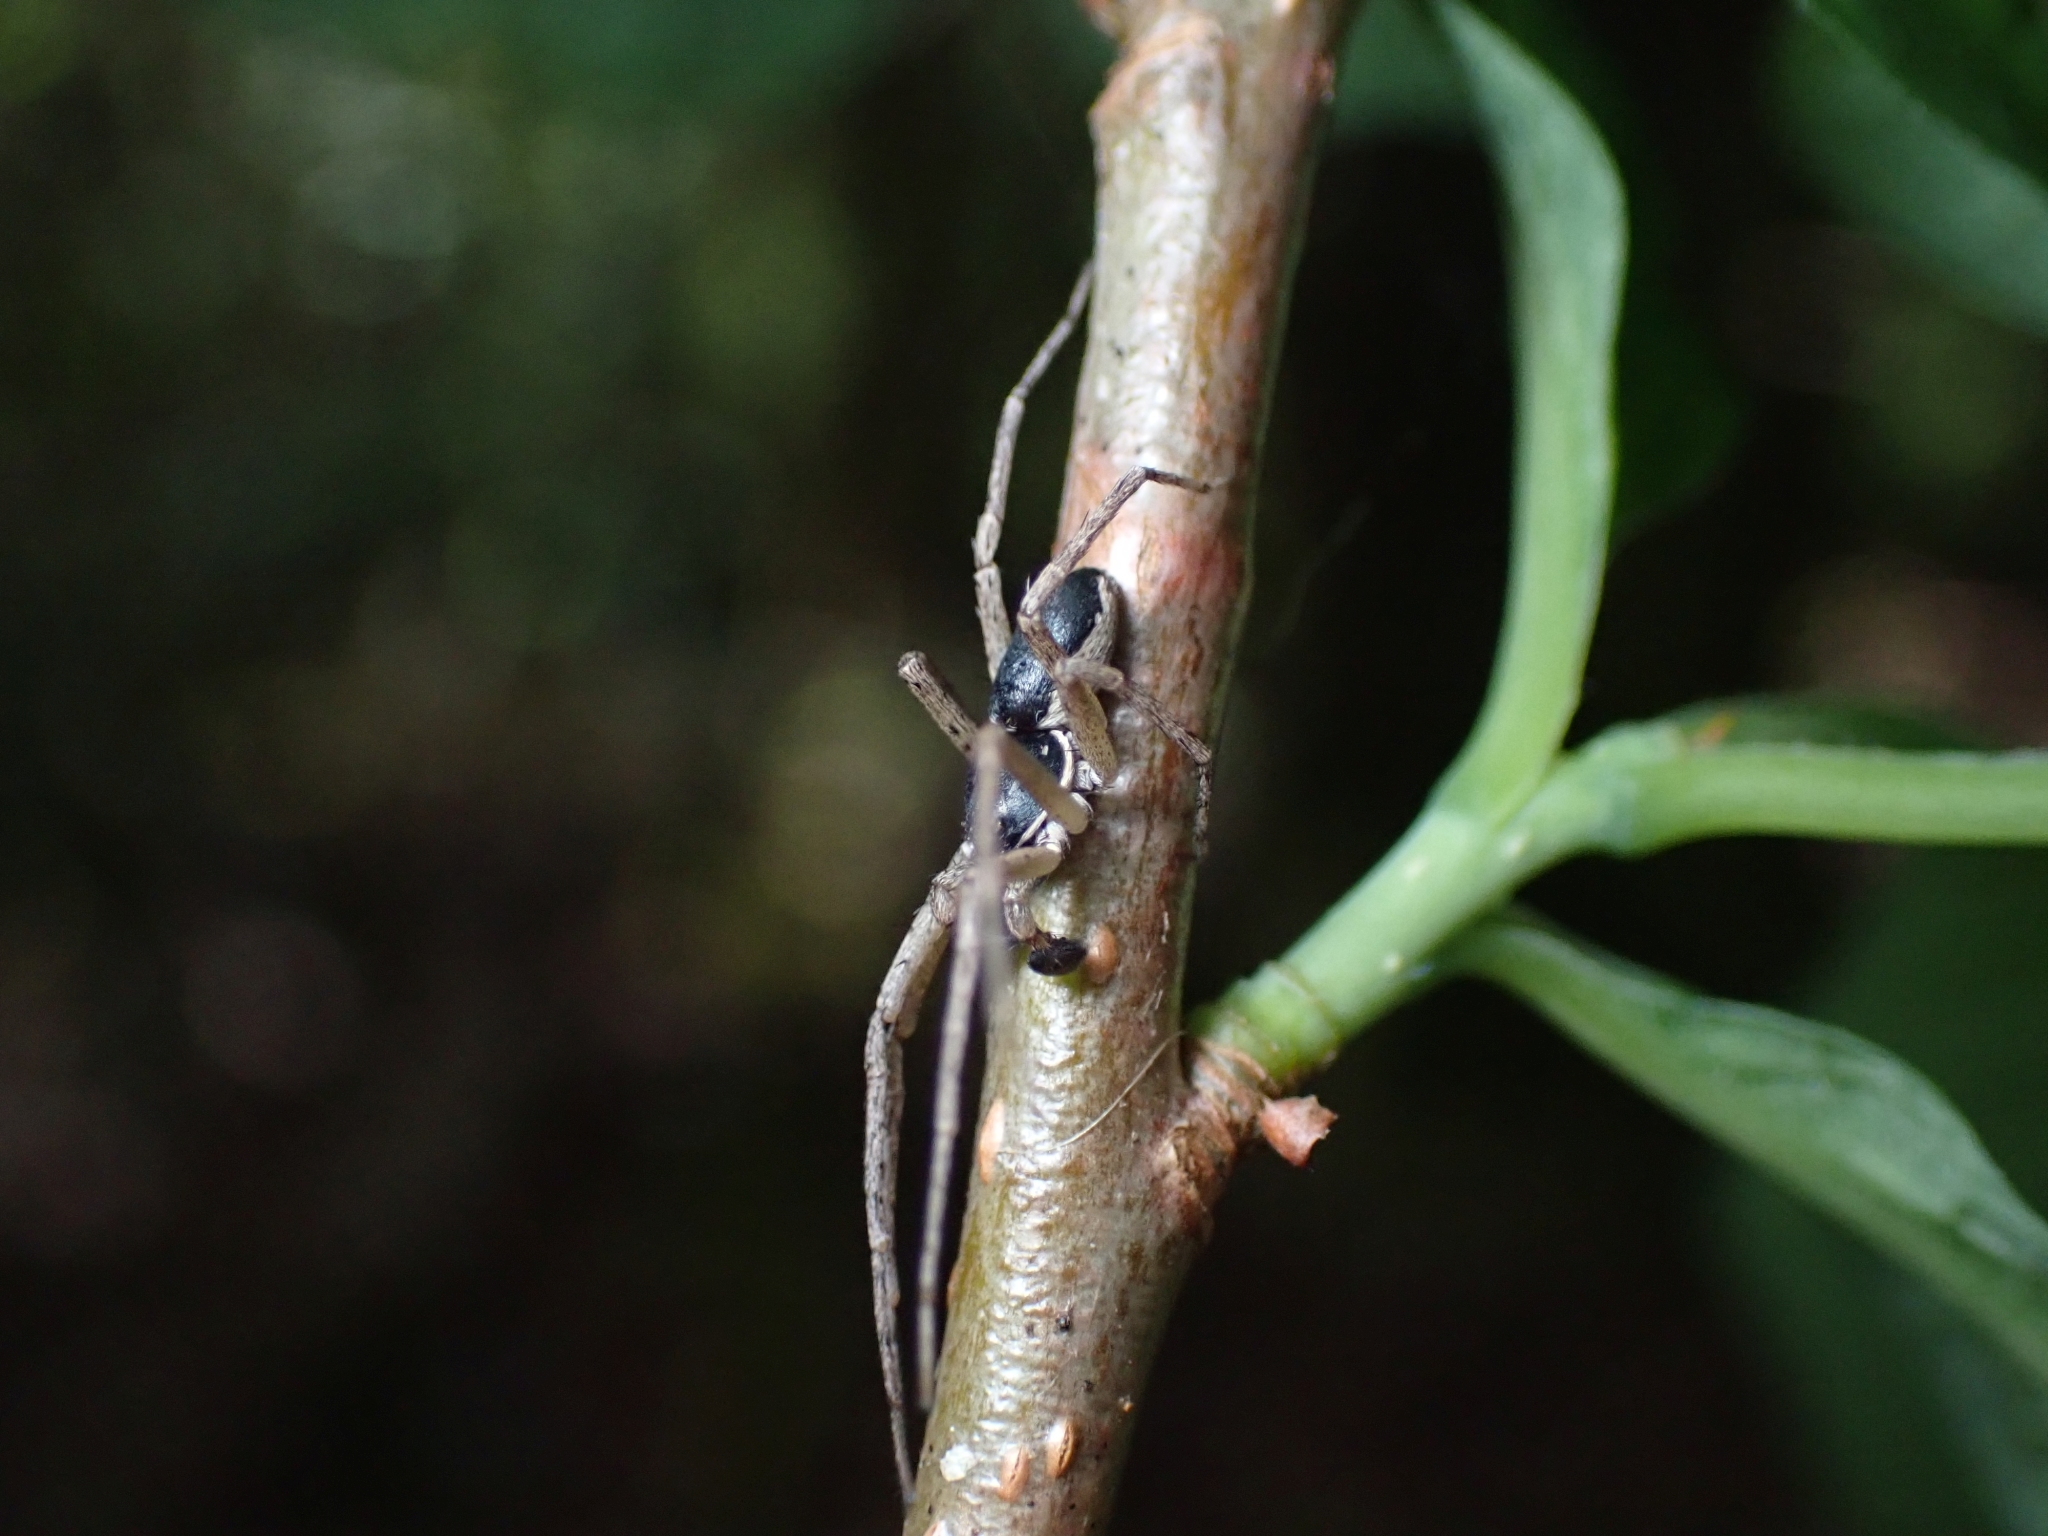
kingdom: Animalia
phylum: Arthropoda
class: Arachnida
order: Araneae
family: Philodromidae
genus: Philodromus
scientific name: Philodromus dispar
